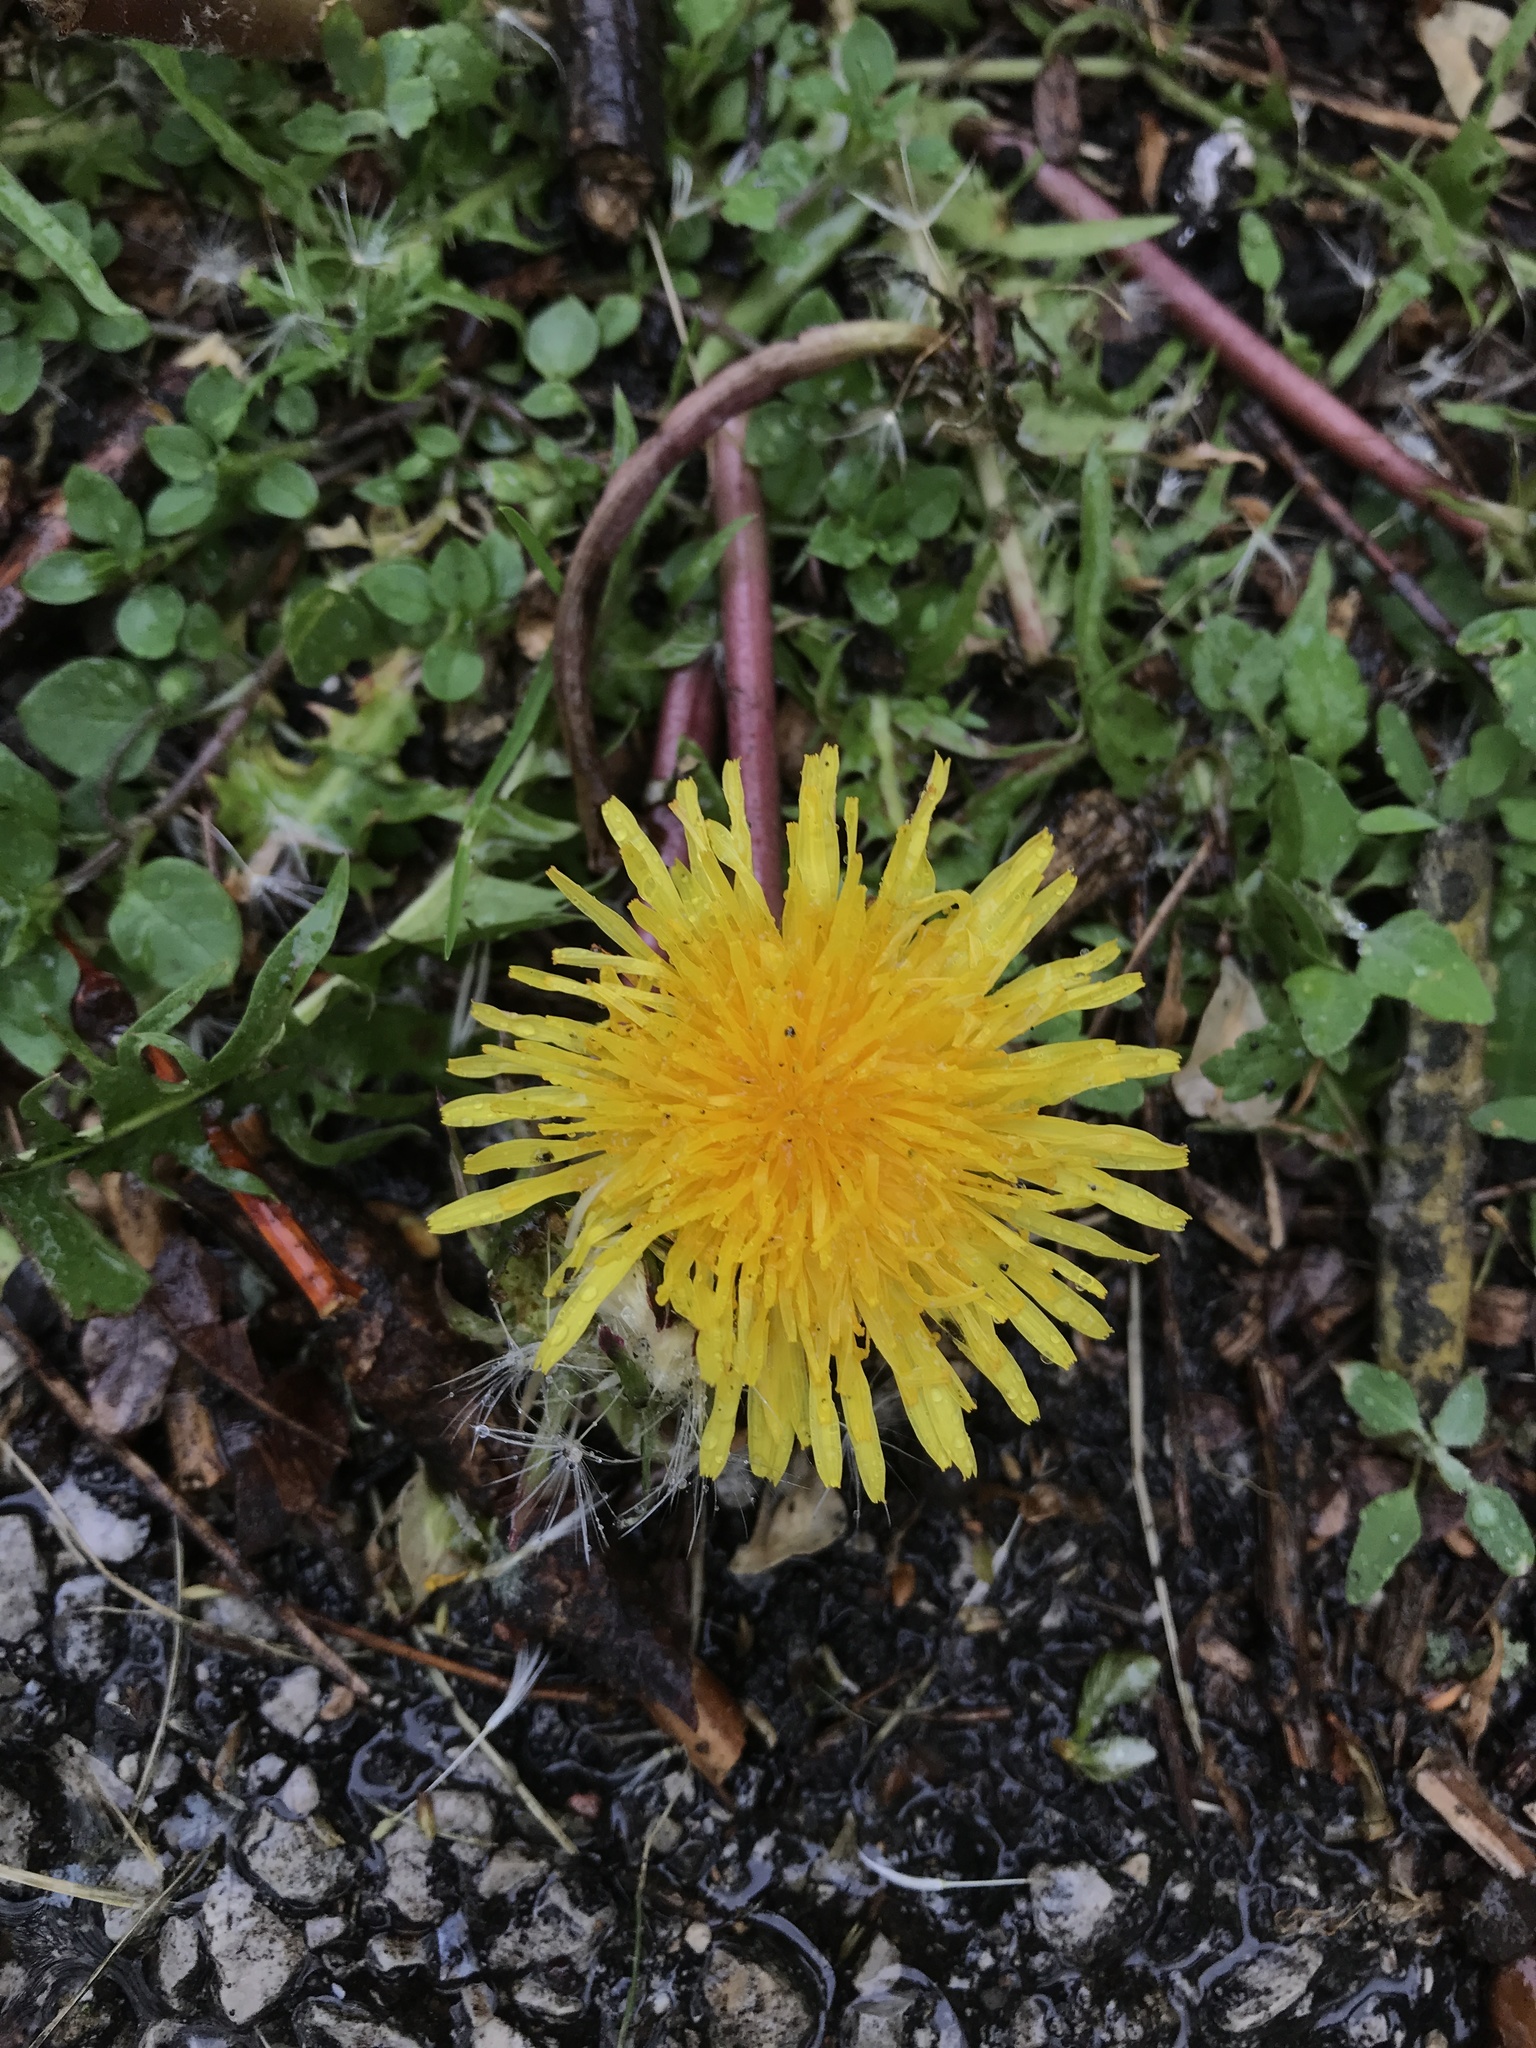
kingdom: Plantae
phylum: Tracheophyta
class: Magnoliopsida
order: Asterales
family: Asteraceae
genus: Taraxacum
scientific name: Taraxacum officinale
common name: Common dandelion
